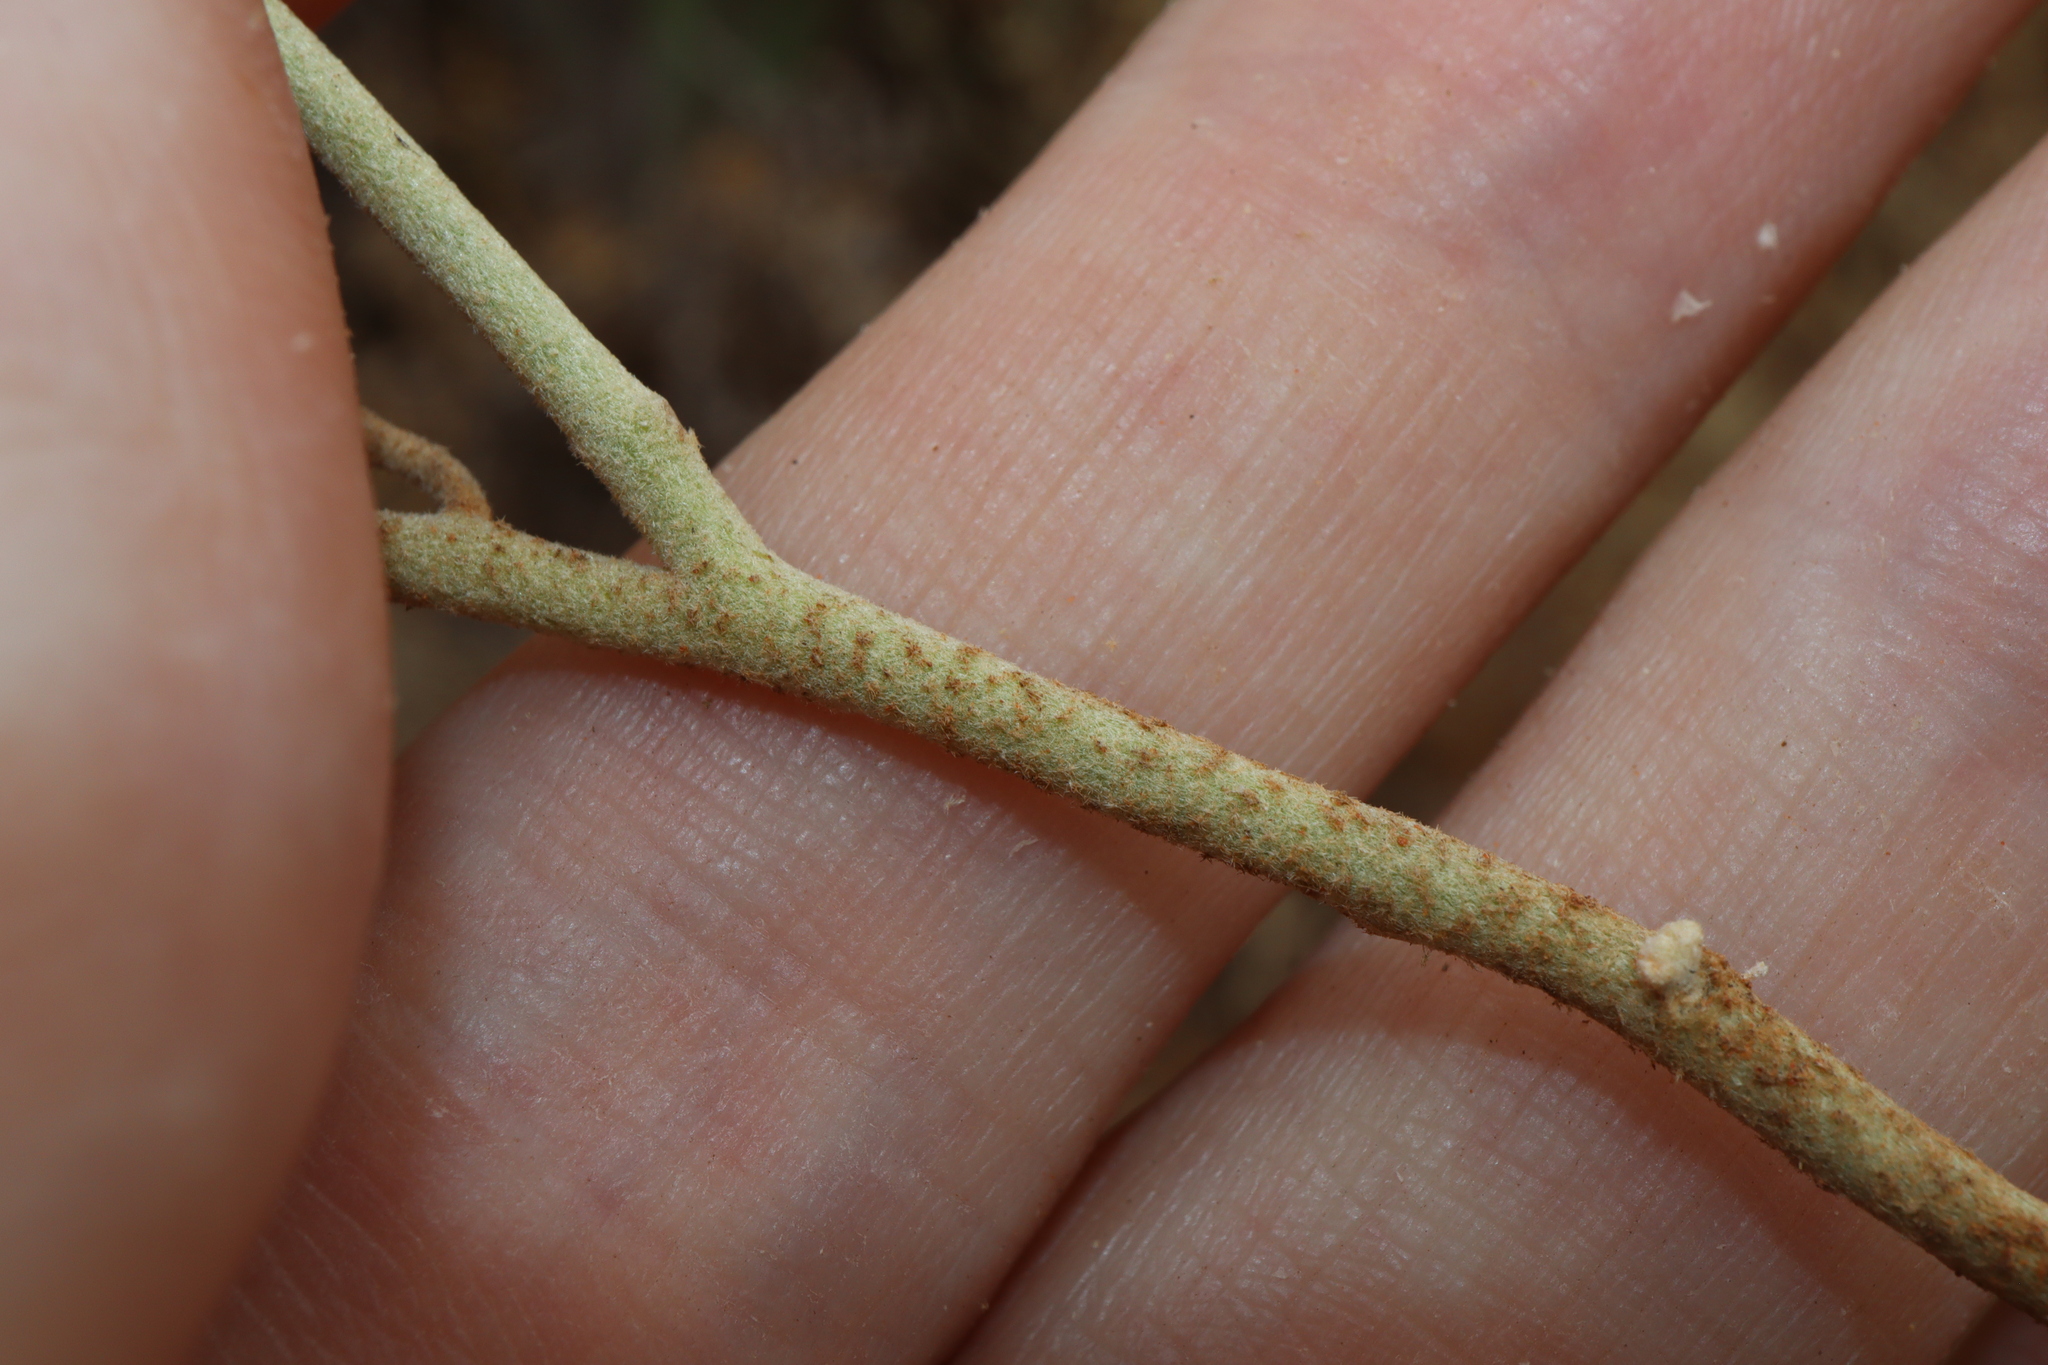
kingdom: Plantae
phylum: Tracheophyta
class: Magnoliopsida
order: Solanales
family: Solanaceae
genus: Solanum
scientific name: Solanum esuriale
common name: Wild tomato
